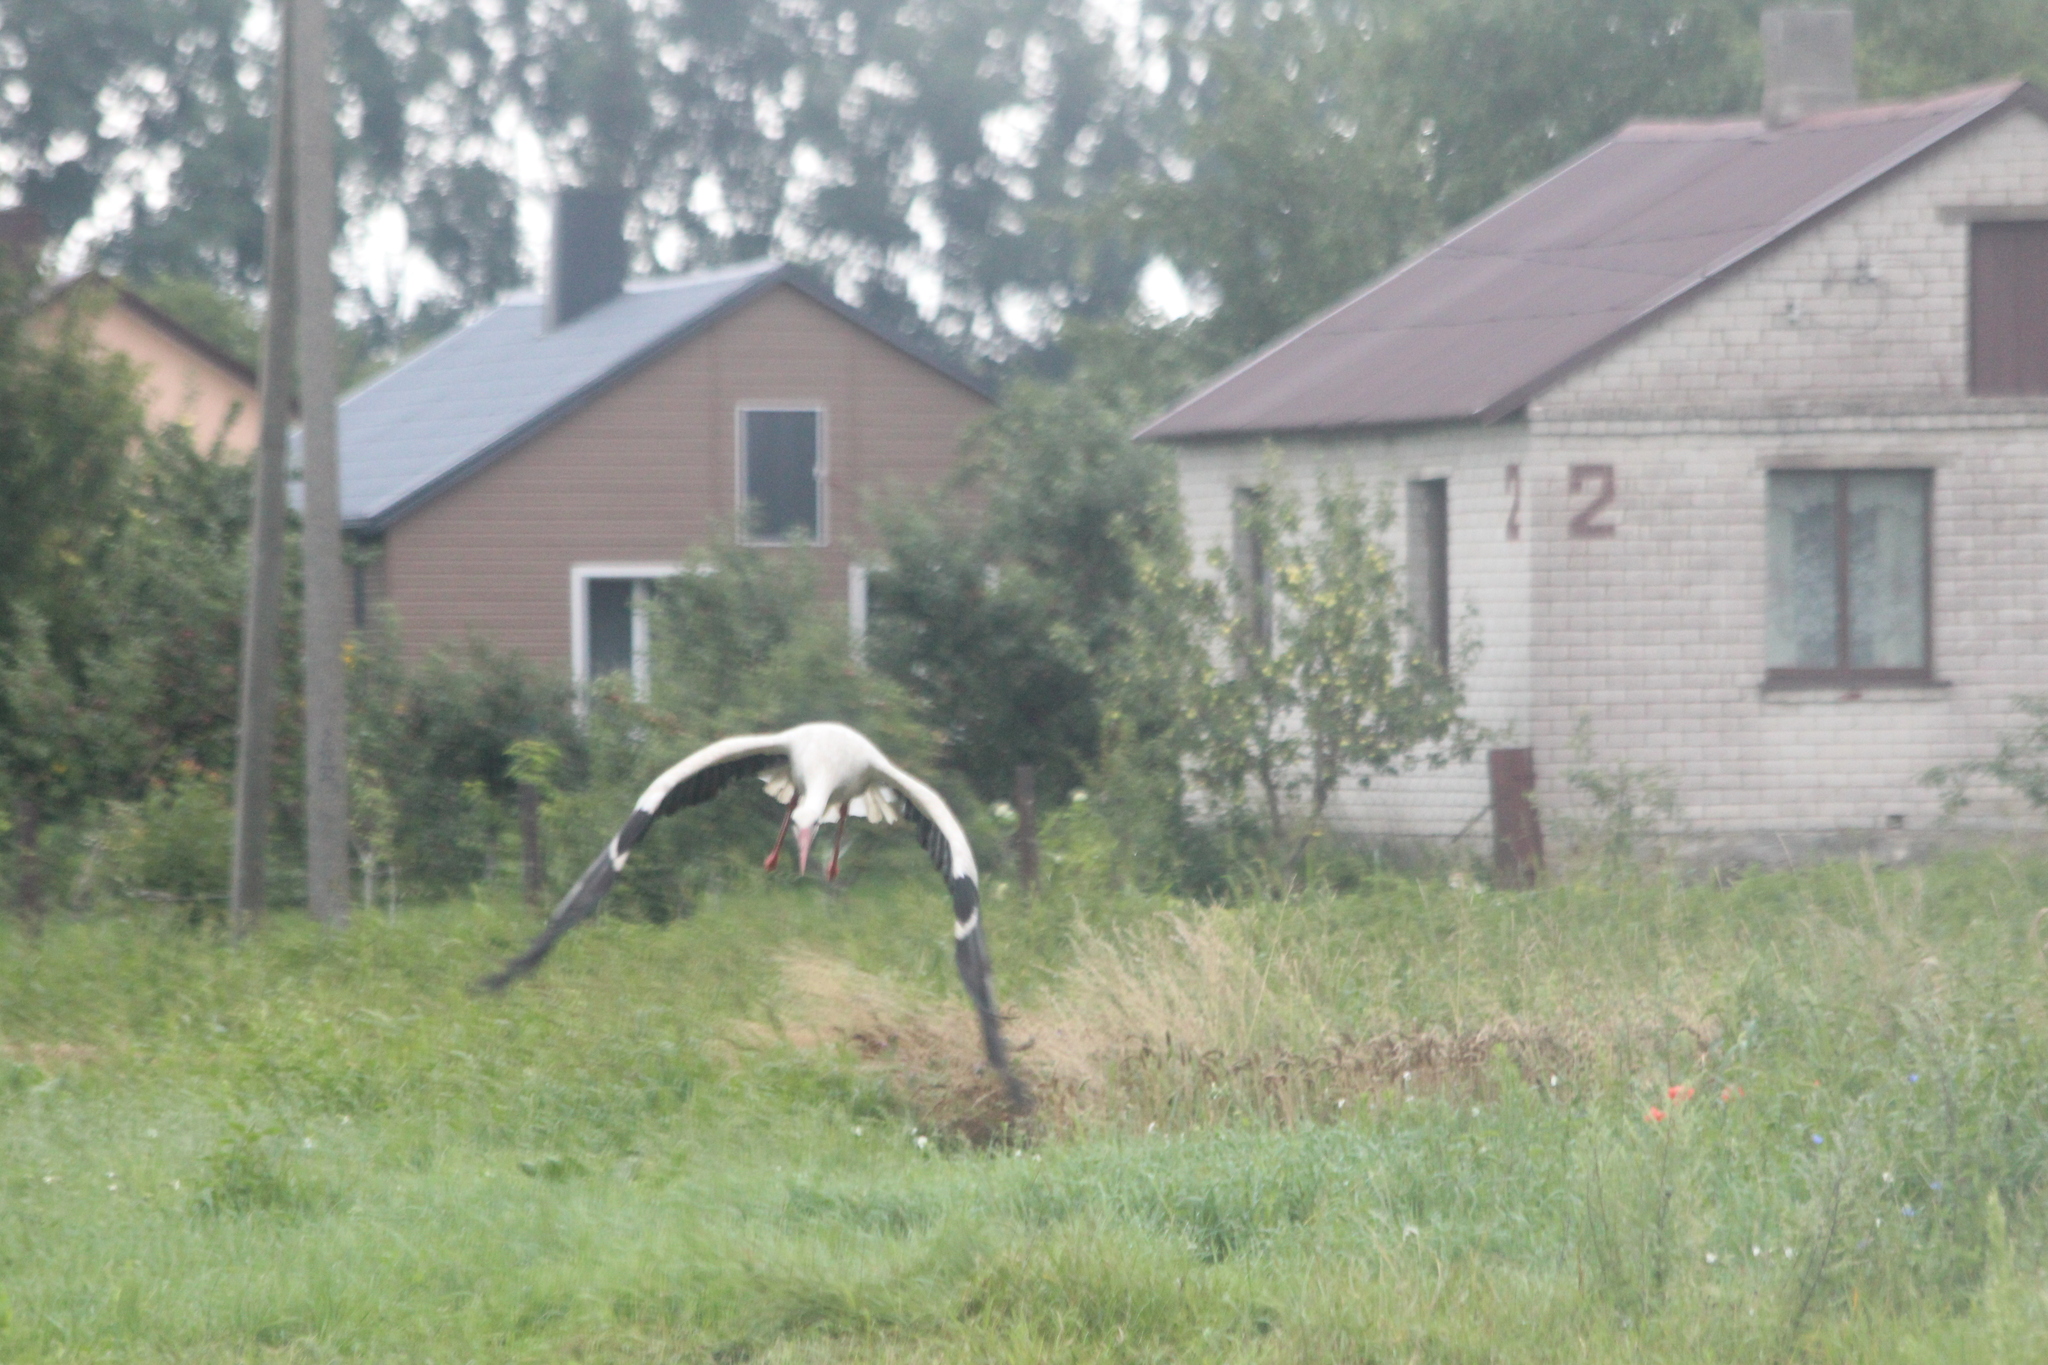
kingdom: Animalia
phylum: Chordata
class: Aves
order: Ciconiiformes
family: Ciconiidae
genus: Ciconia
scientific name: Ciconia ciconia
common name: White stork
